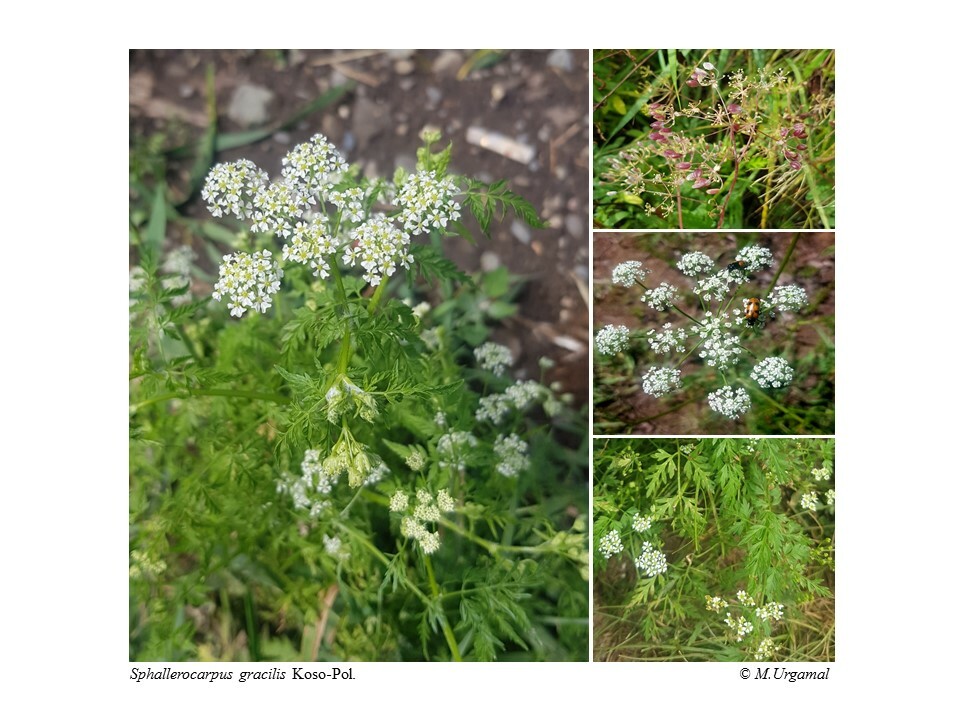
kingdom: Plantae
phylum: Tracheophyta
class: Magnoliopsida
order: Apiales
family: Apiaceae
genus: Sphallerocarpus
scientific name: Sphallerocarpus gracilis
